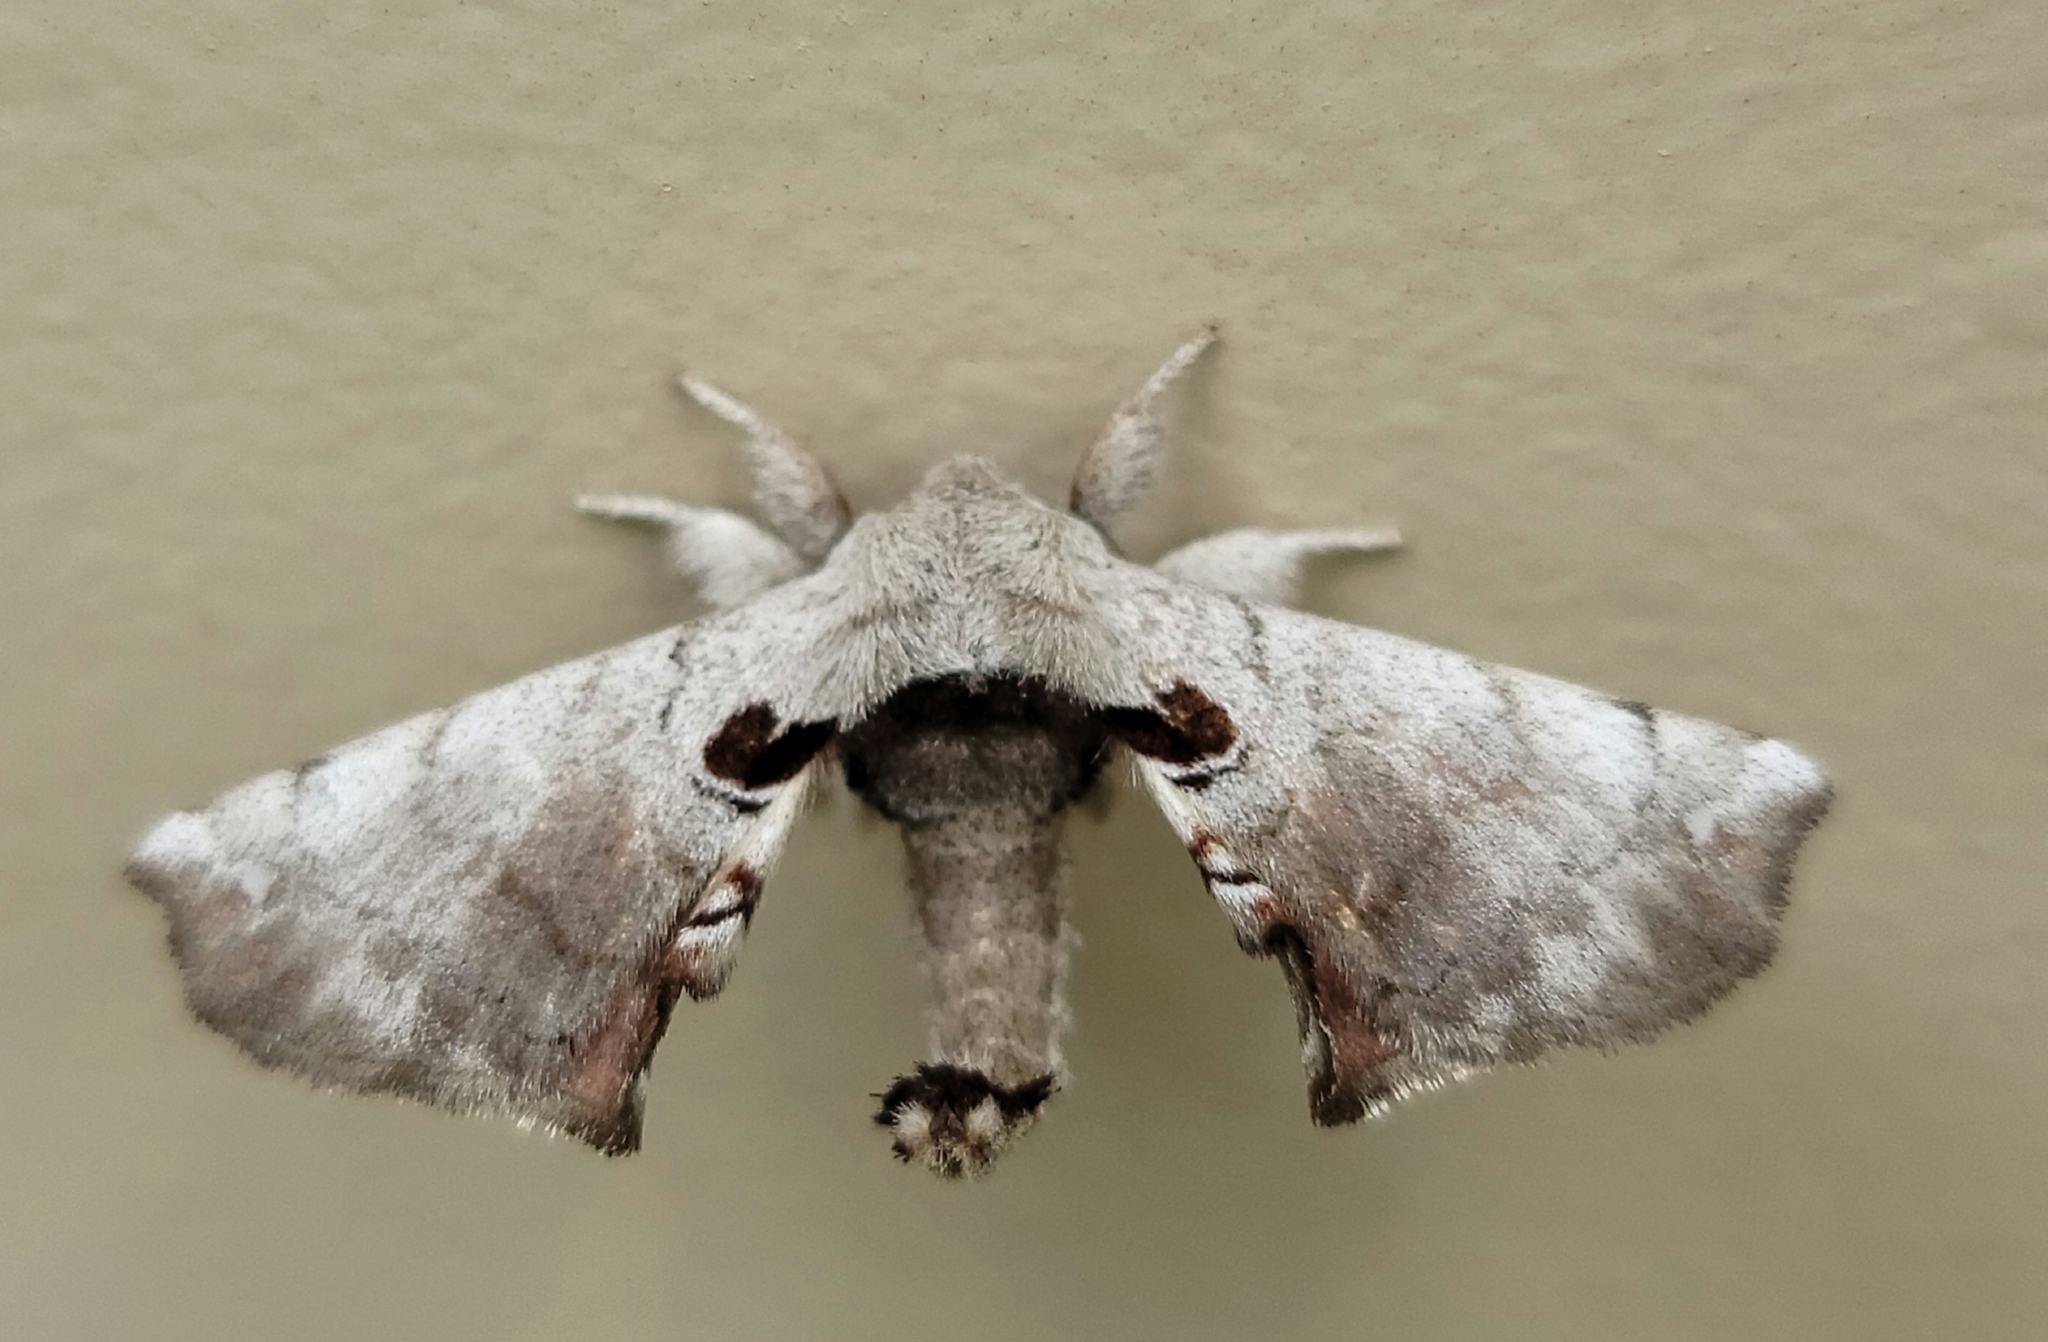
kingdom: Animalia
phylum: Arthropoda
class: Insecta
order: Lepidoptera
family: Apatelodidae
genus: Hygrochroa
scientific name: Hygrochroa Apatelodes torrefacta
